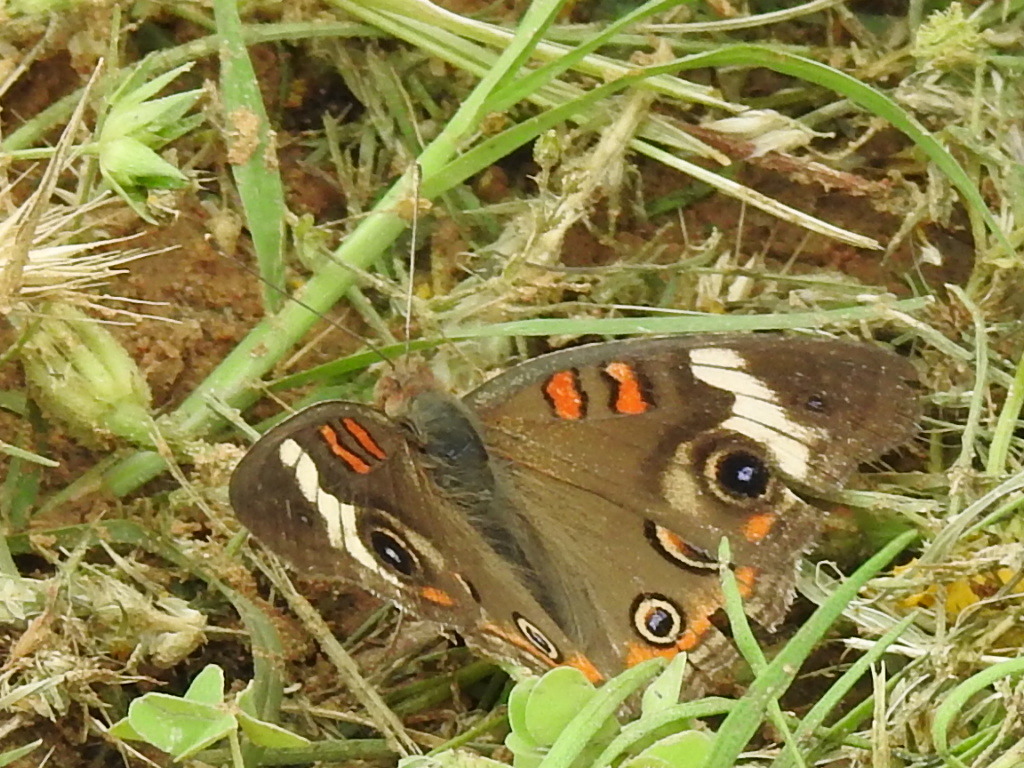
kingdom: Animalia
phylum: Arthropoda
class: Insecta
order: Lepidoptera
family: Nymphalidae
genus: Junonia
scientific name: Junonia coenia
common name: Common buckeye
